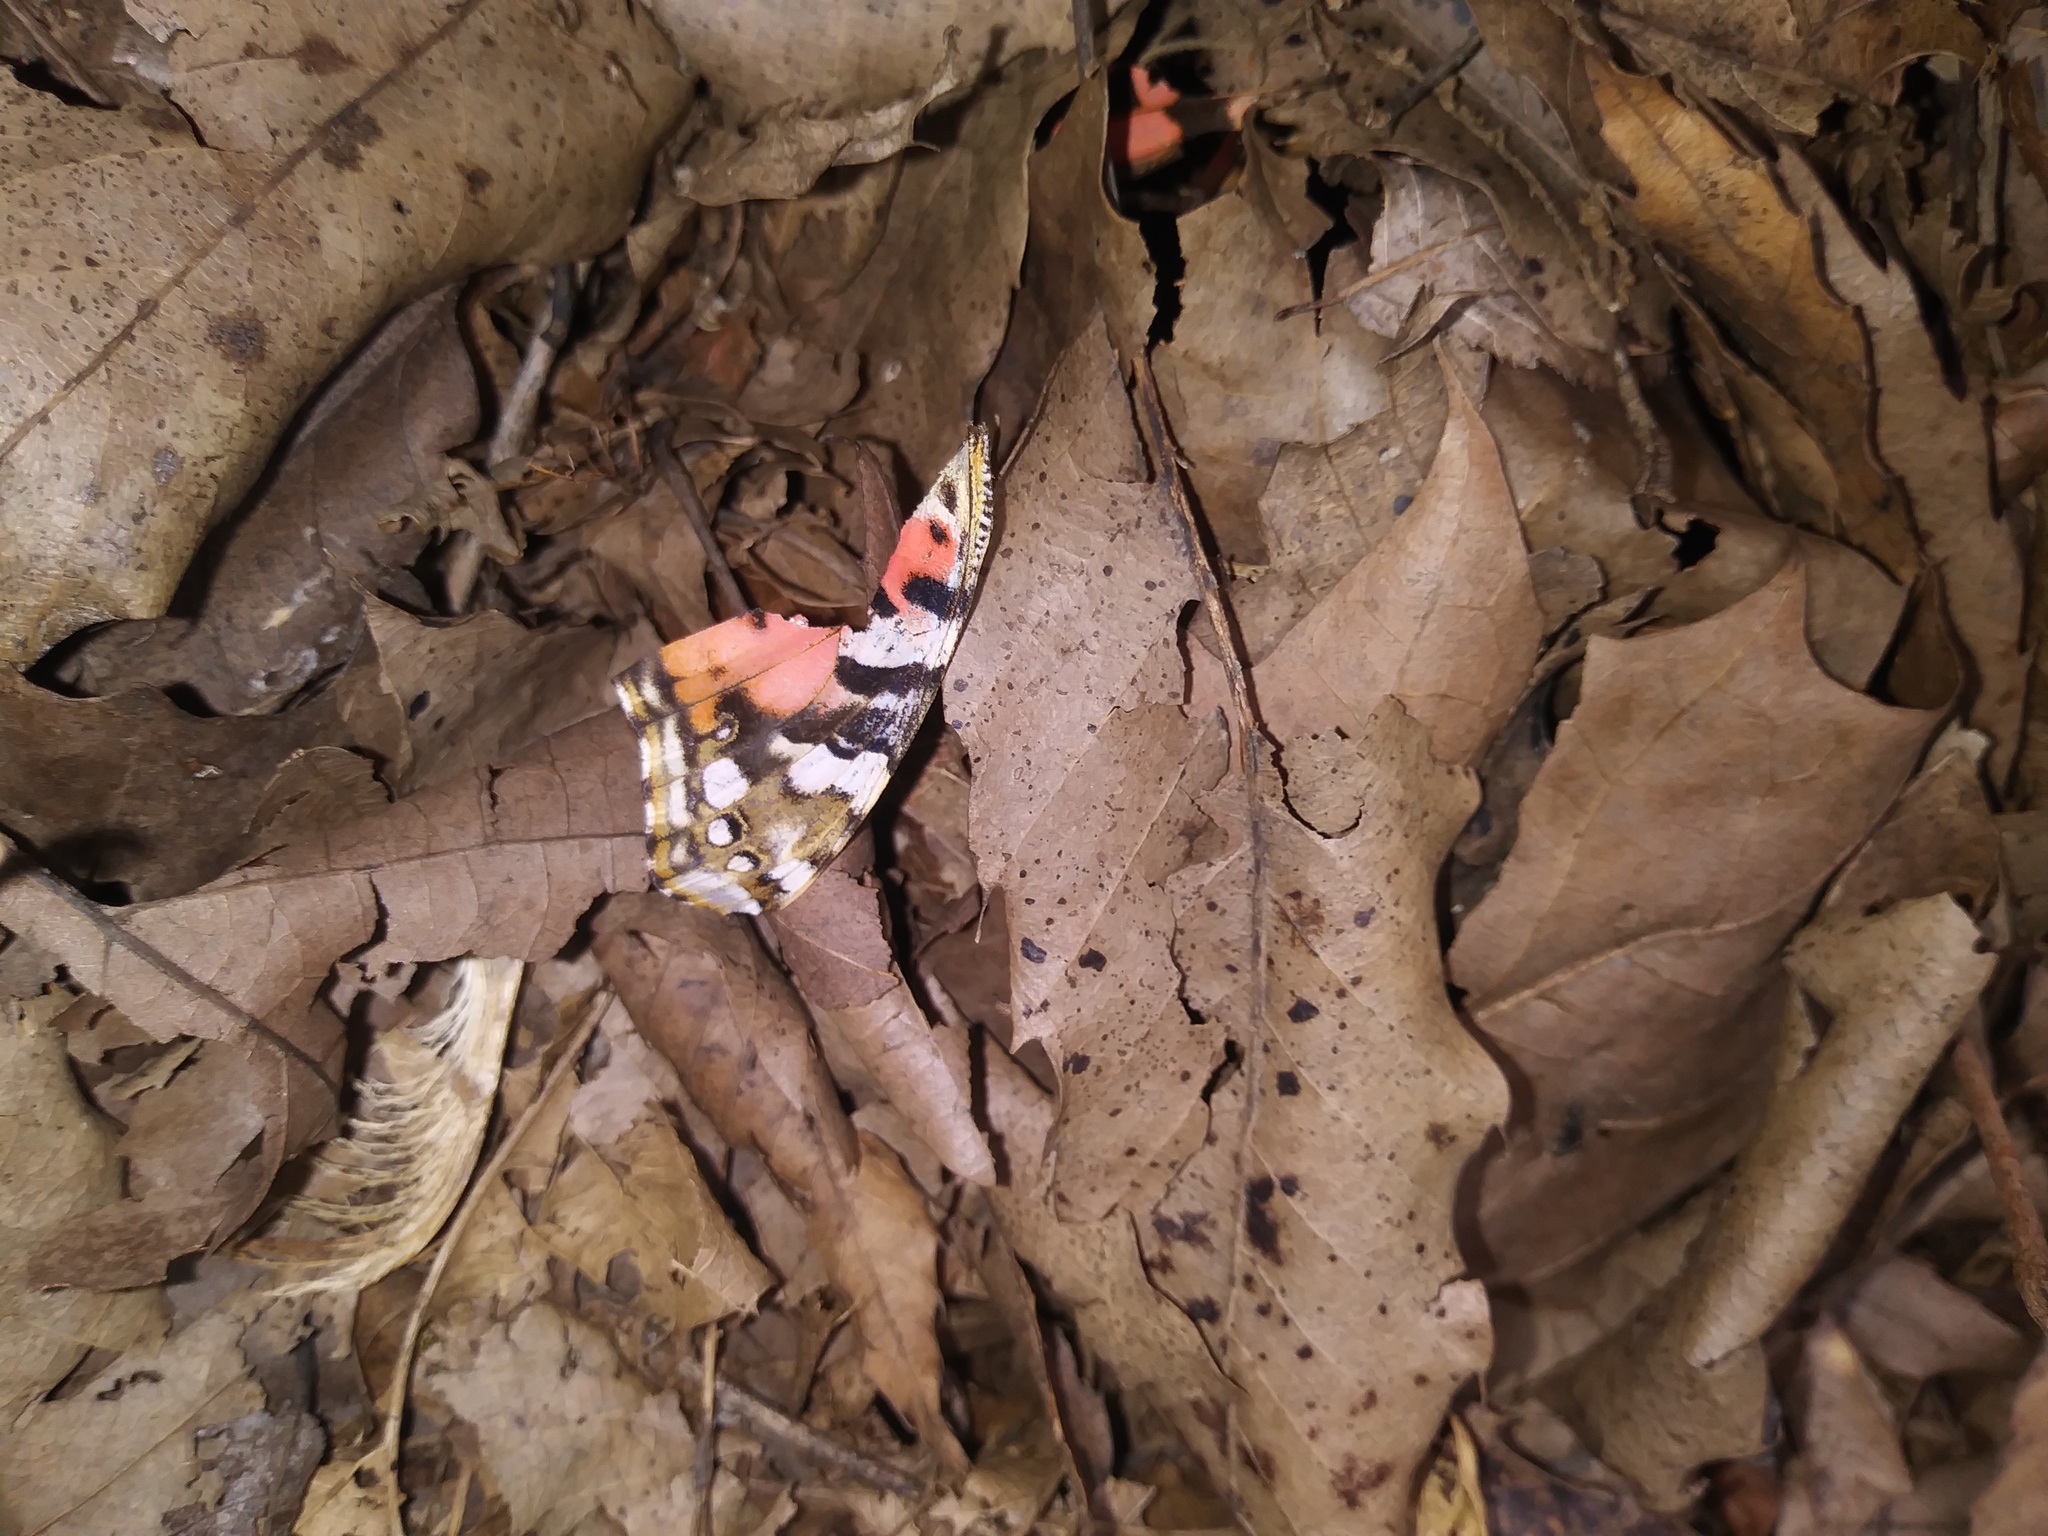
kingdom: Animalia
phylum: Arthropoda
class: Insecta
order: Lepidoptera
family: Nymphalidae
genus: Vanessa
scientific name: Vanessa cardui
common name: Painted lady
